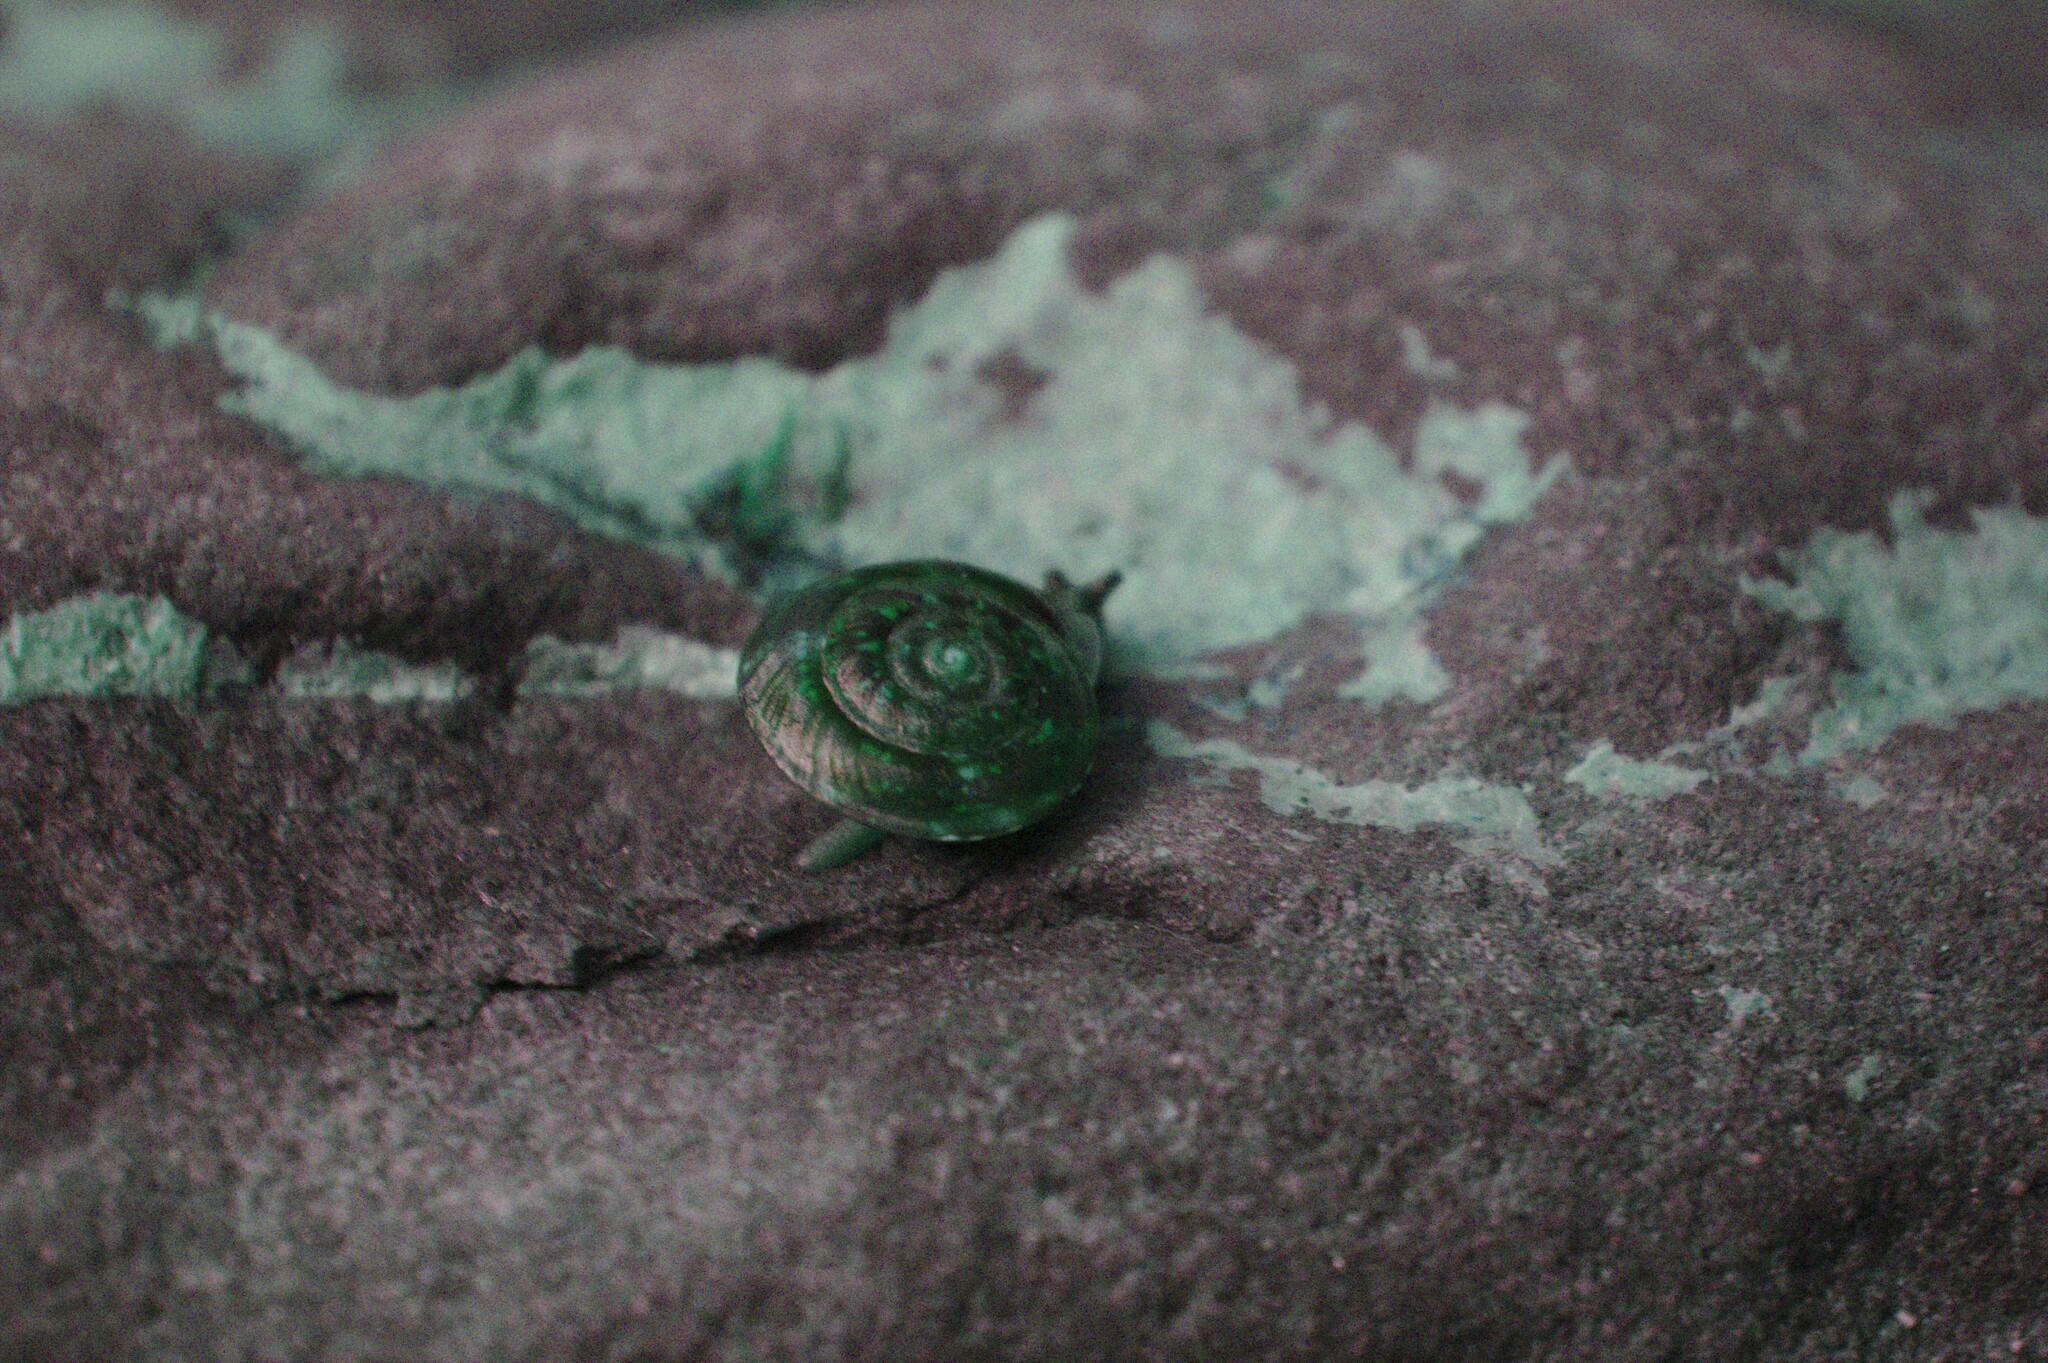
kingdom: Animalia
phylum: Mollusca
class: Gastropoda
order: Stylommatophora
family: Helicidae
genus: Helicigona
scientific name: Helicigona lapicida
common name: Lapidary snail
